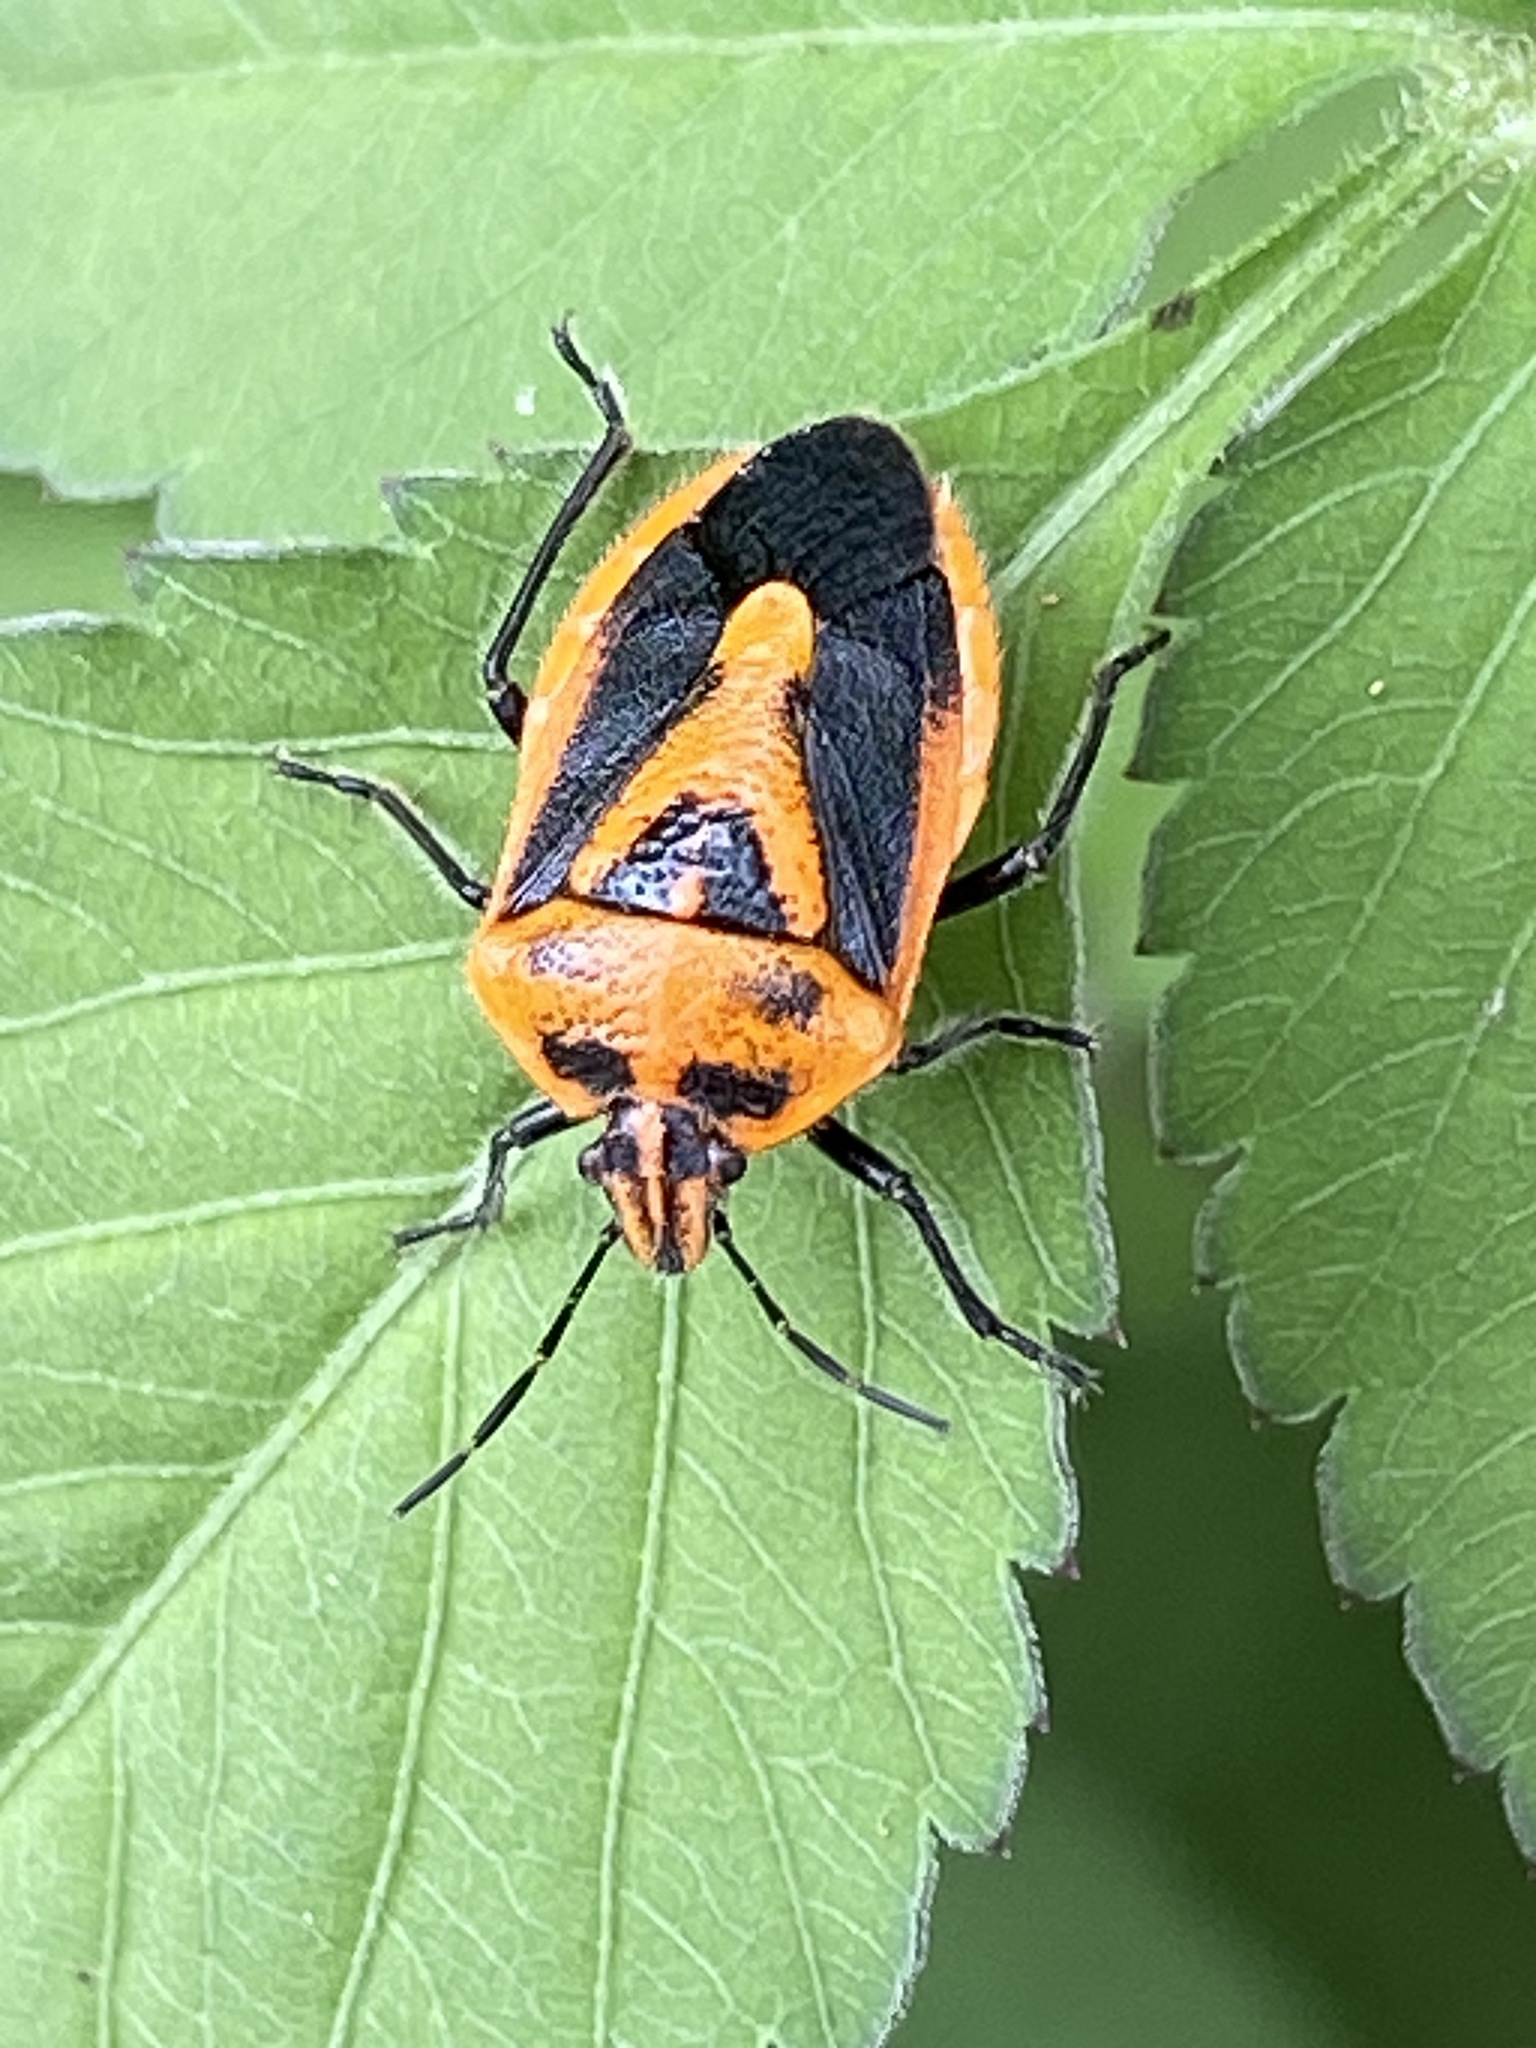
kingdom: Animalia
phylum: Arthropoda
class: Insecta
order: Hemiptera
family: Pentatomidae
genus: Agonoscelis
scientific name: Agonoscelis rutila
